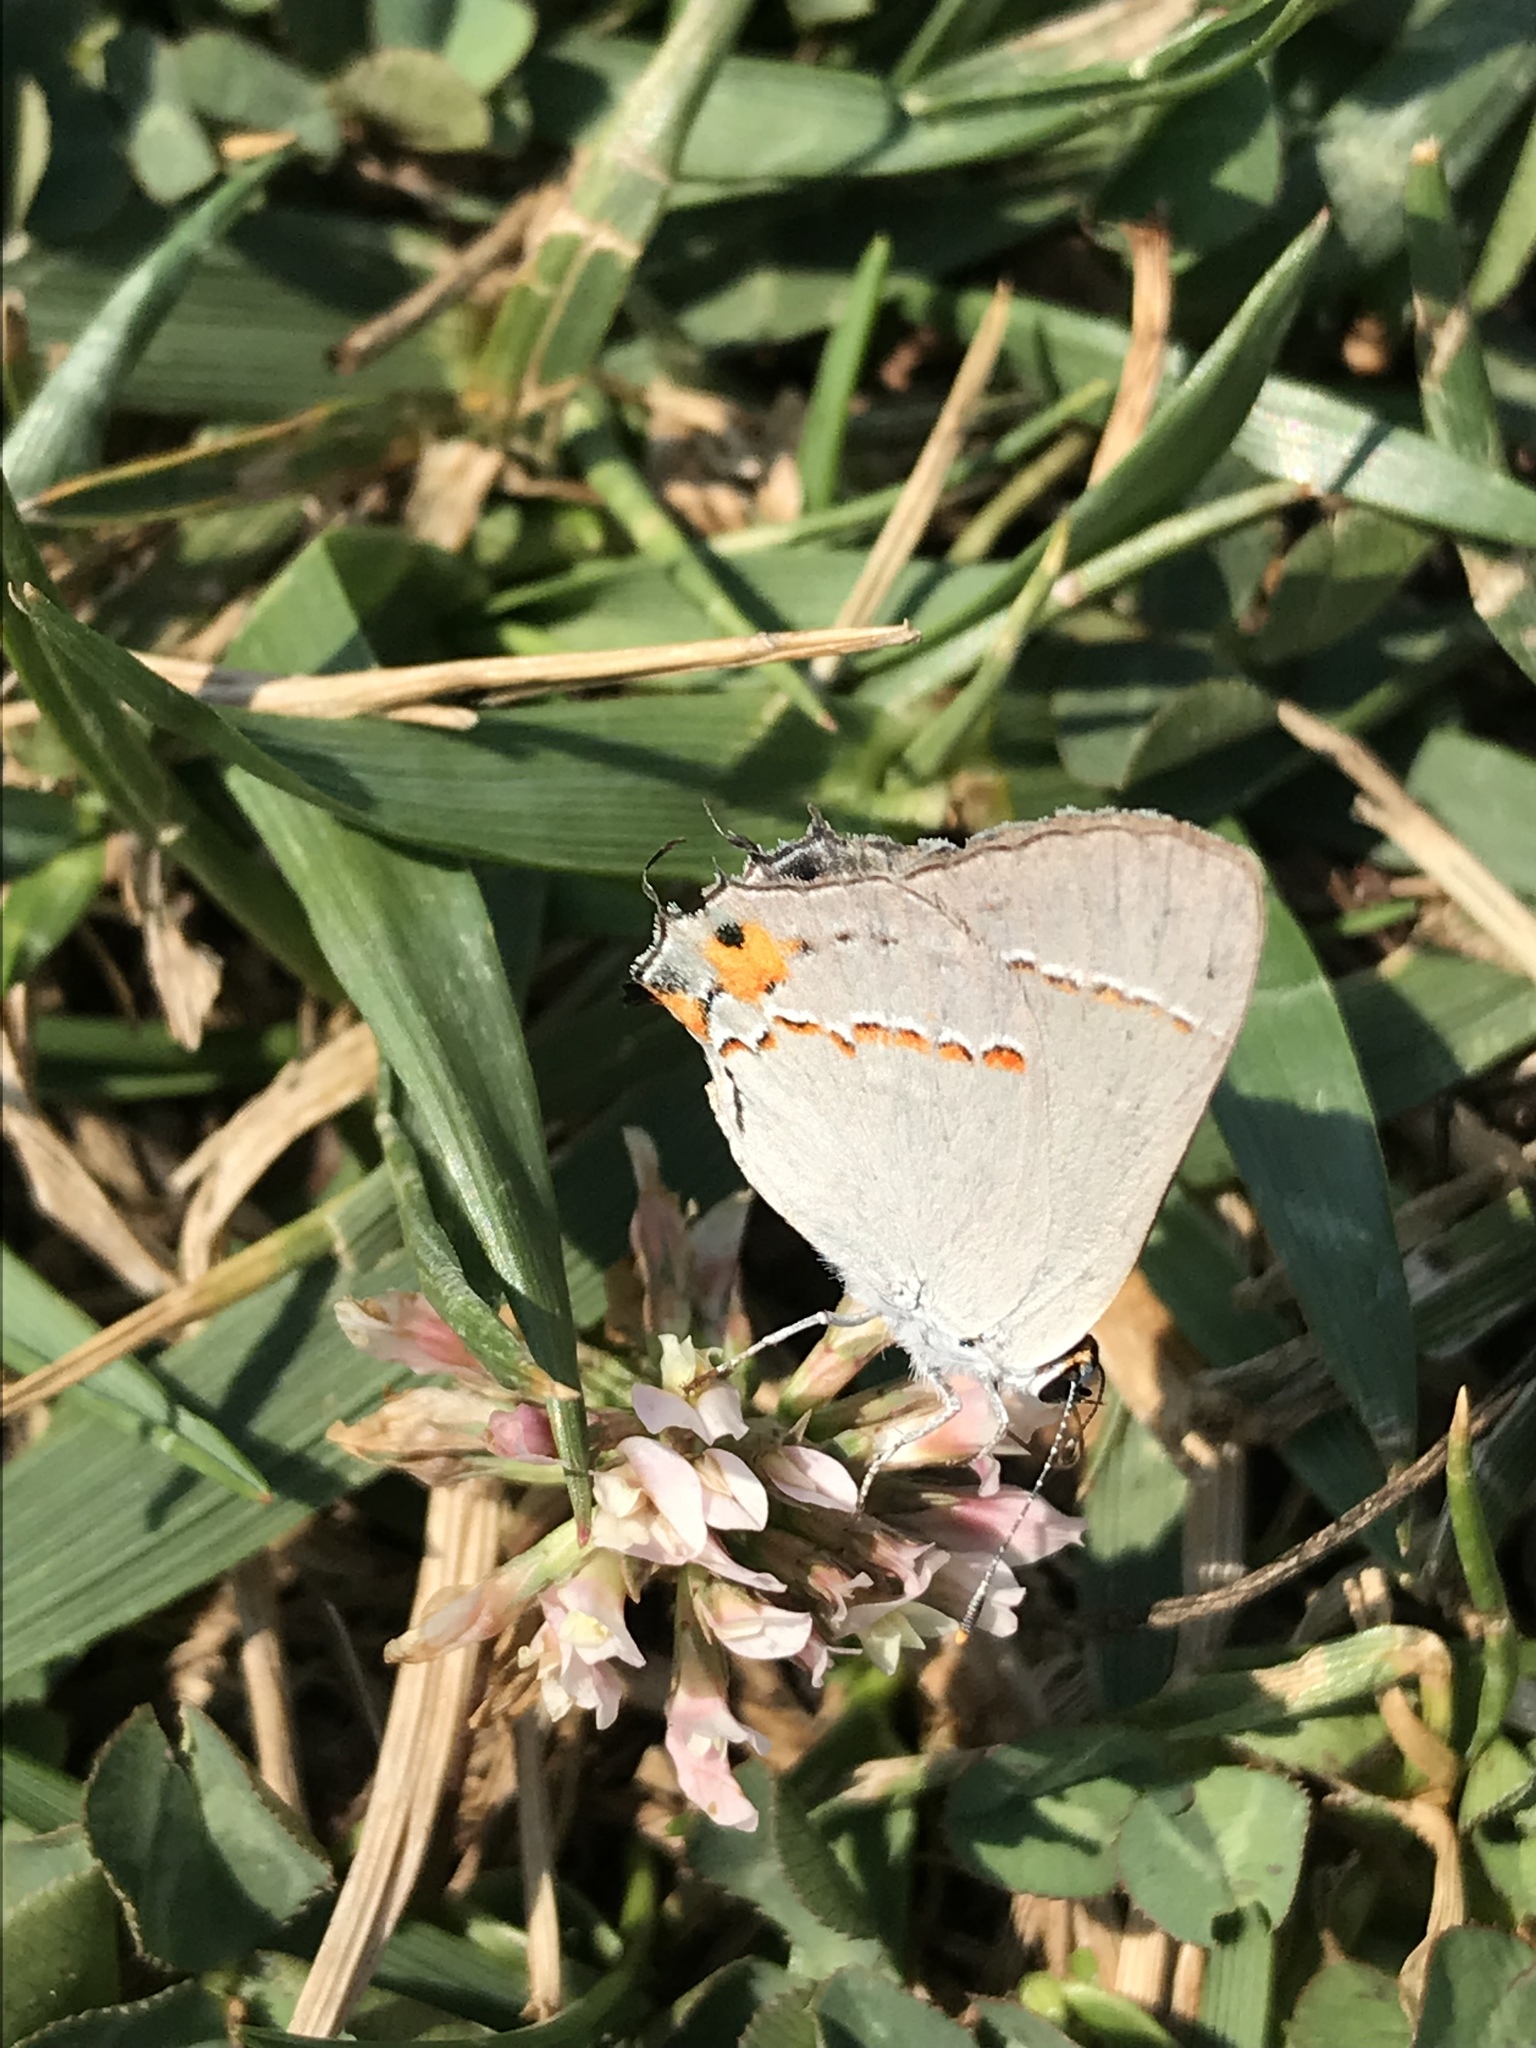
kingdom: Animalia
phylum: Arthropoda
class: Insecta
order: Lepidoptera
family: Lycaenidae
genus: Strymon
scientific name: Strymon melinus
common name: Gray hairstreak
